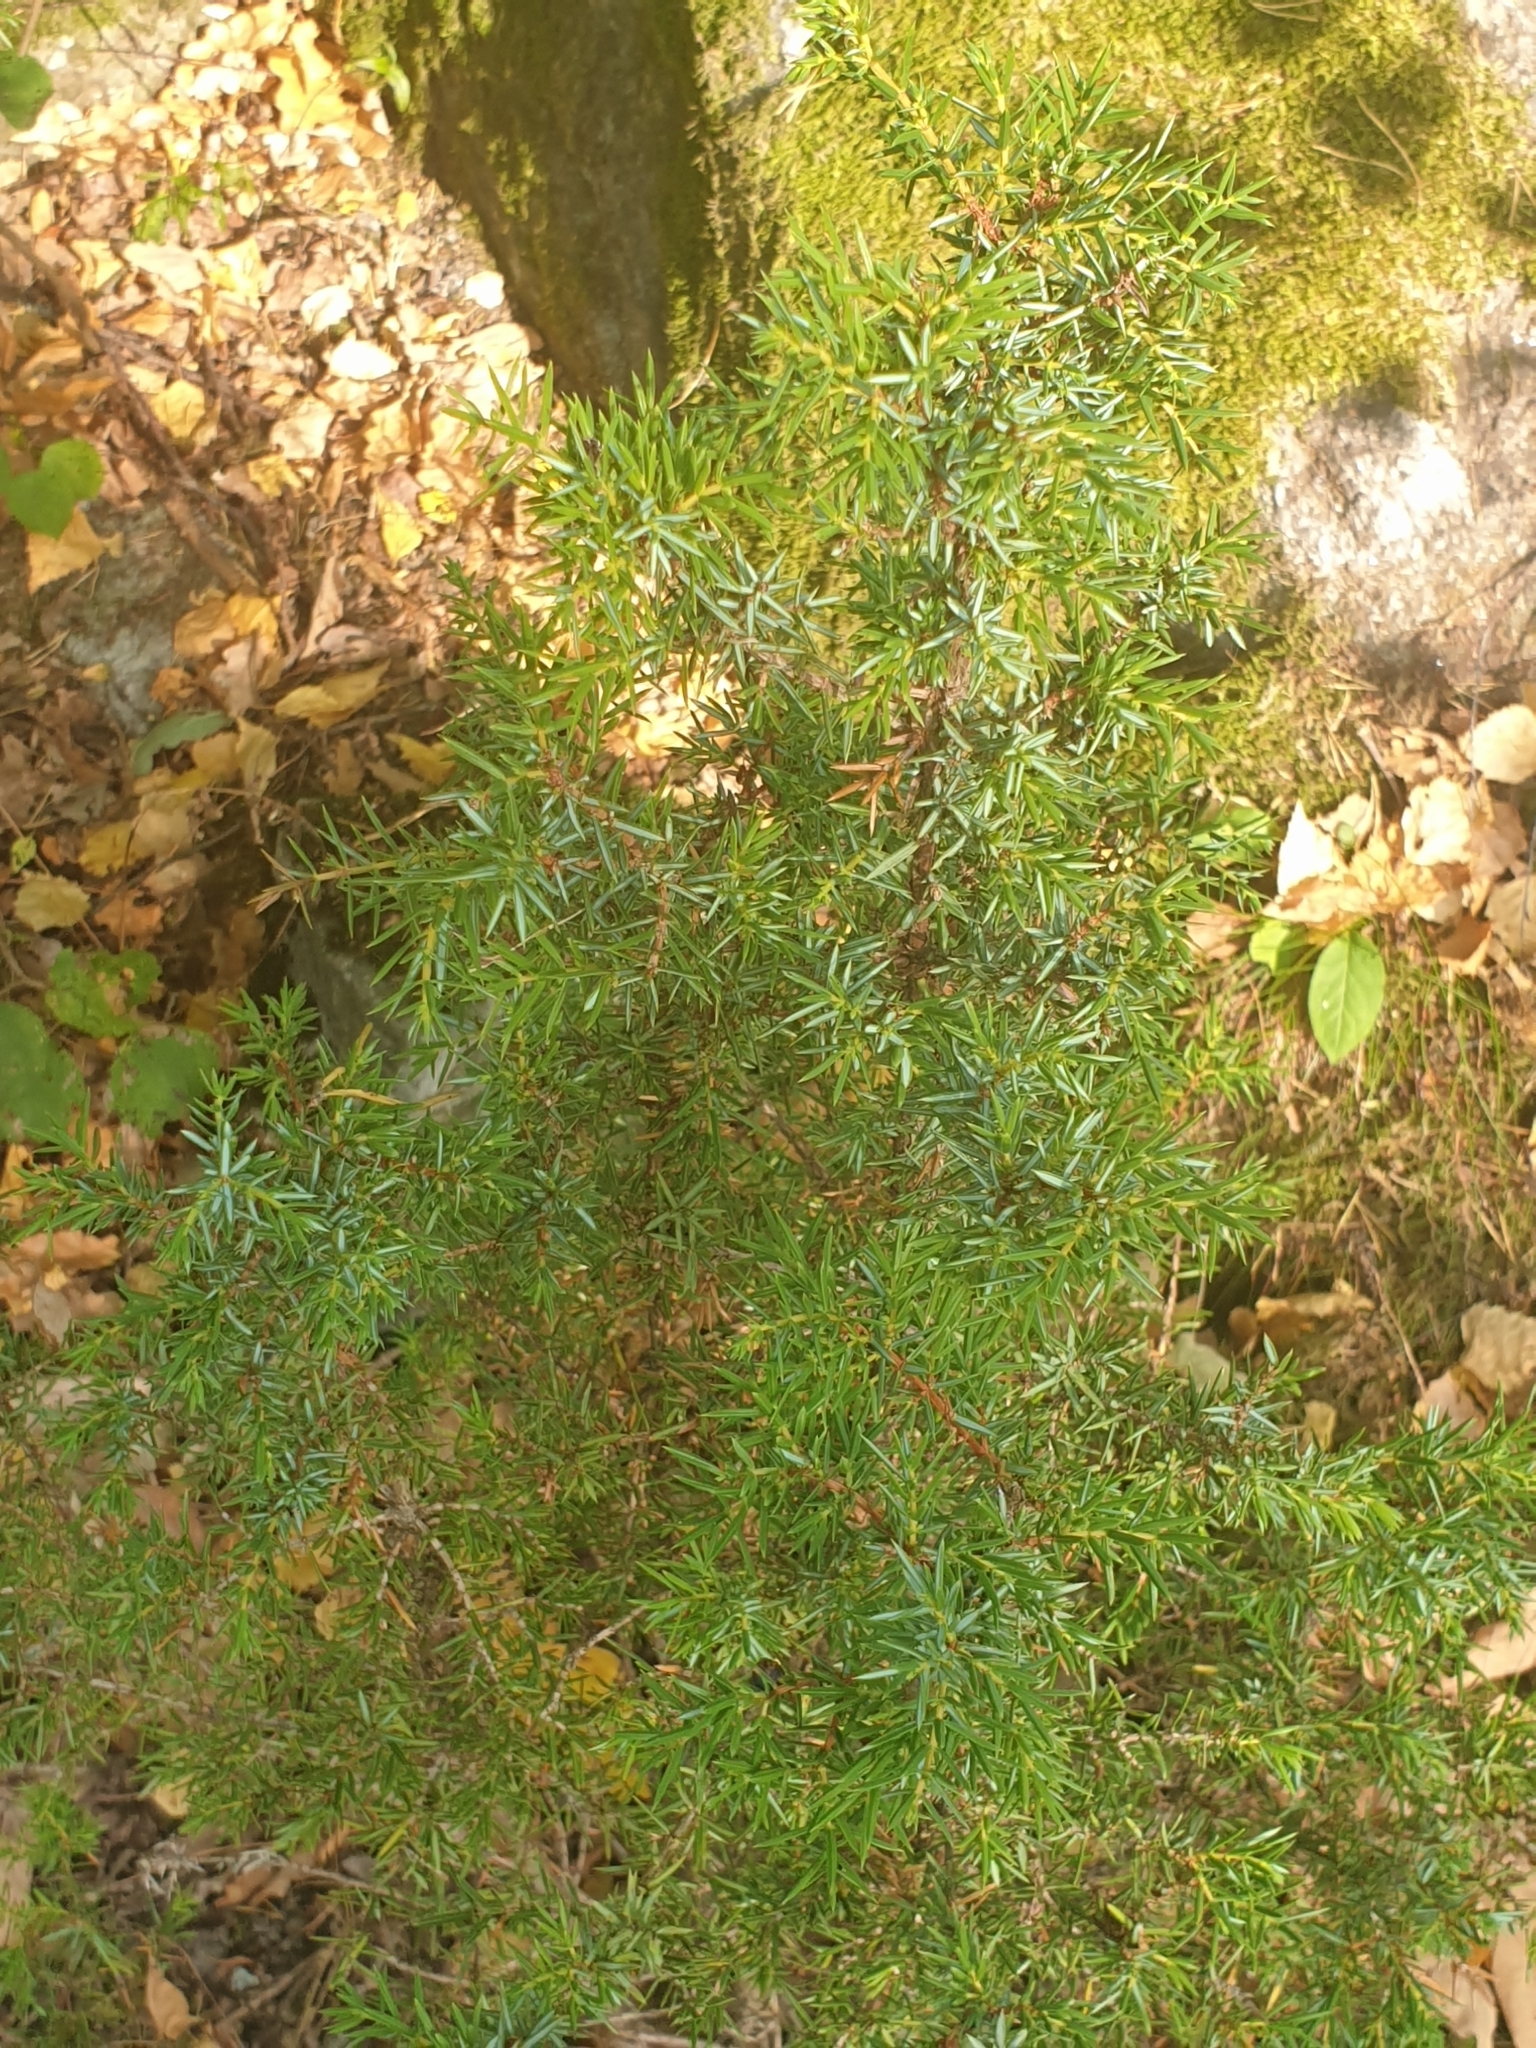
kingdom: Plantae
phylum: Tracheophyta
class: Pinopsida
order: Pinales
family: Cupressaceae
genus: Juniperus
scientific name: Juniperus communis
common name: Common juniper
